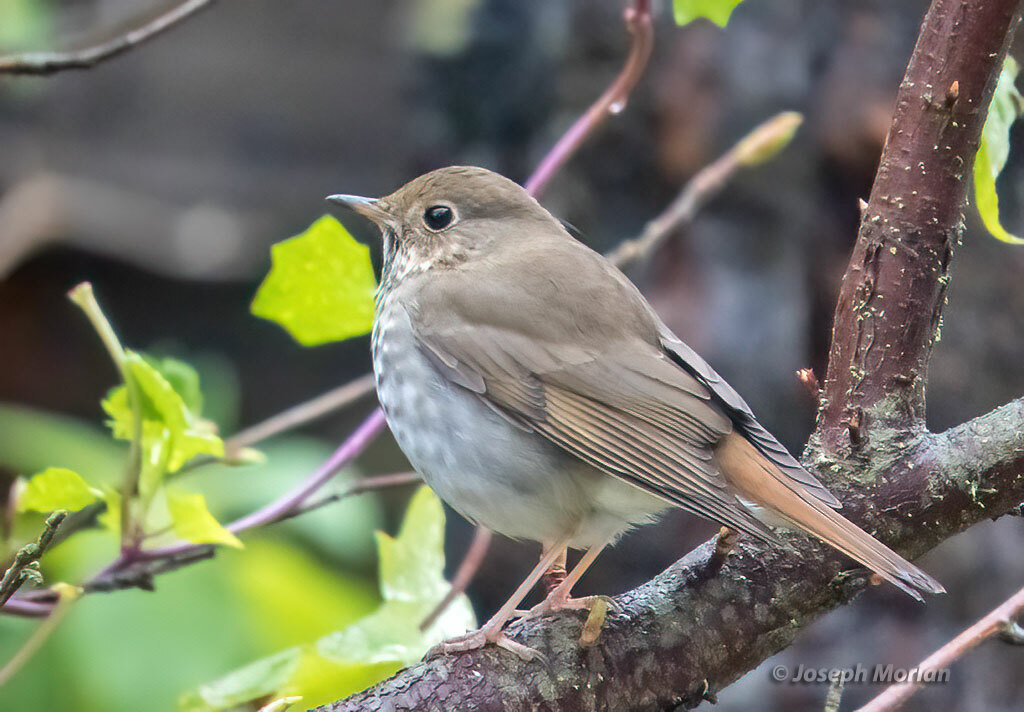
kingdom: Animalia
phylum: Chordata
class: Aves
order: Passeriformes
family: Turdidae
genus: Catharus
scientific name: Catharus guttatus
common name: Hermit thrush
